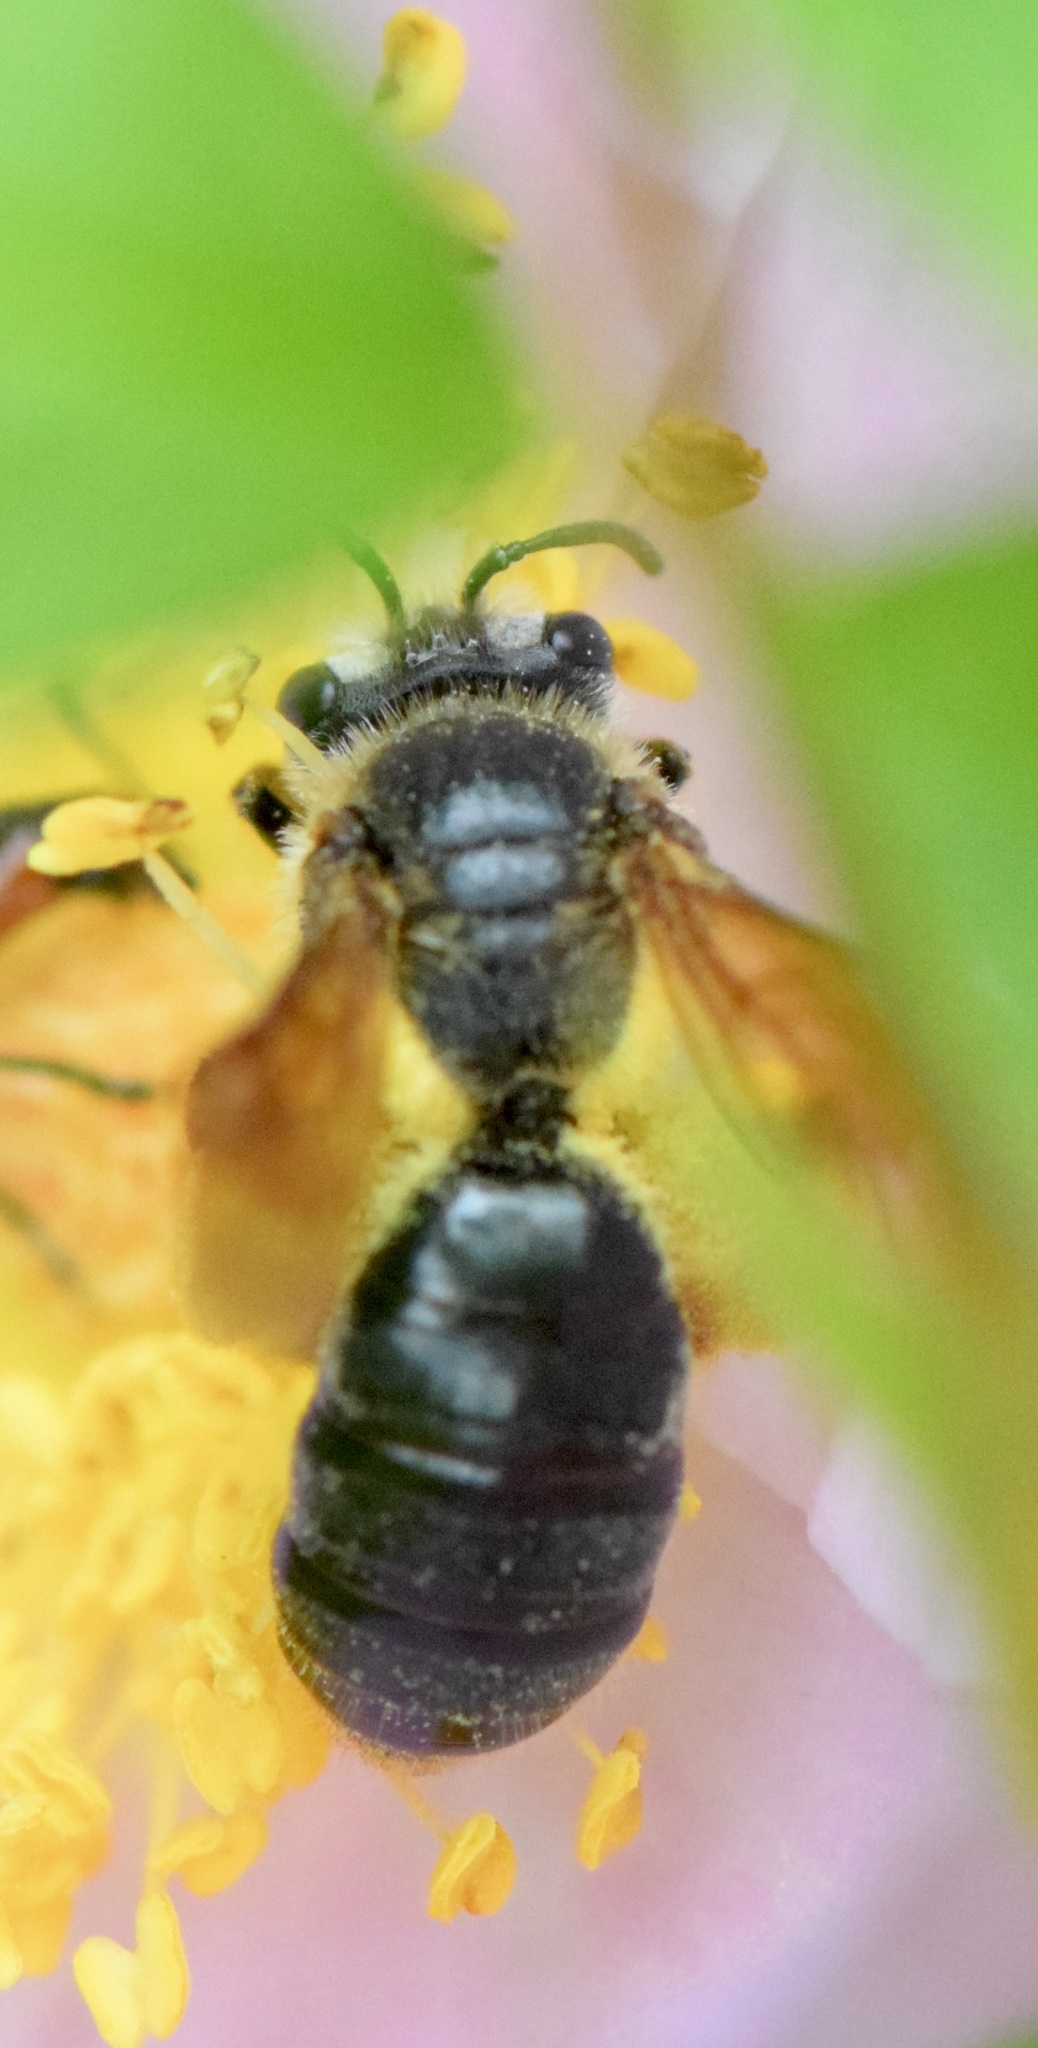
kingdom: Animalia
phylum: Arthropoda
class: Insecta
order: Hymenoptera
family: Andrenidae
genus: Andrena
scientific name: Andrena crataegi
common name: Hawthorn mining bee
